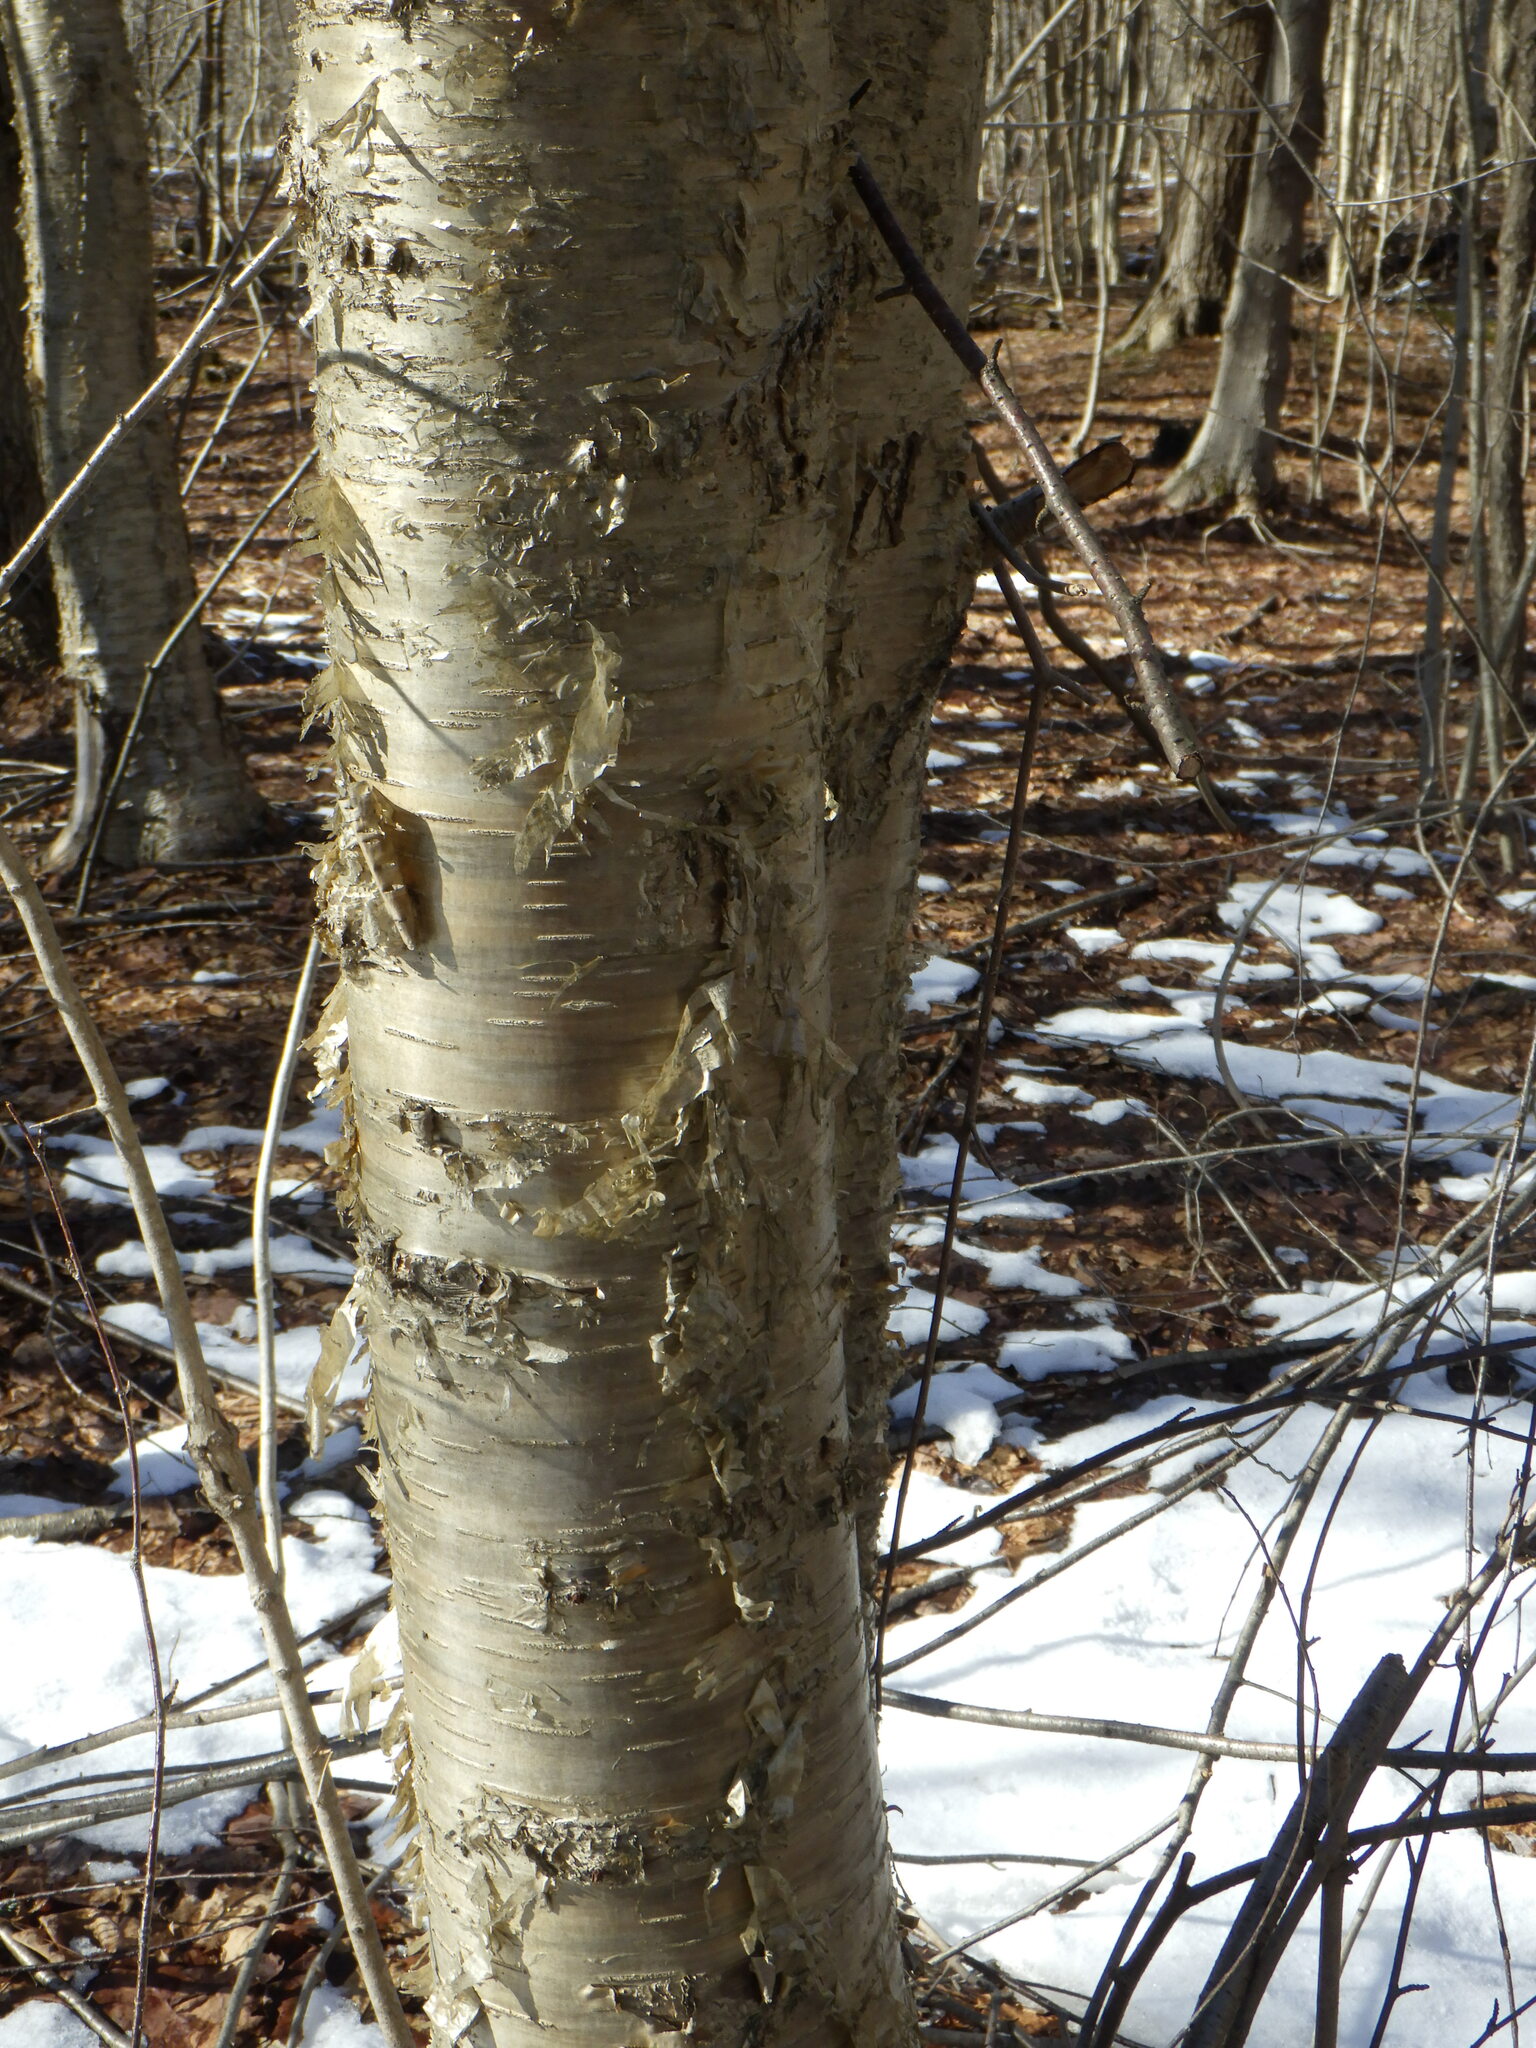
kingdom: Plantae
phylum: Tracheophyta
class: Magnoliopsida
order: Fagales
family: Betulaceae
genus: Betula
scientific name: Betula alleghaniensis
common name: Yellow birch
